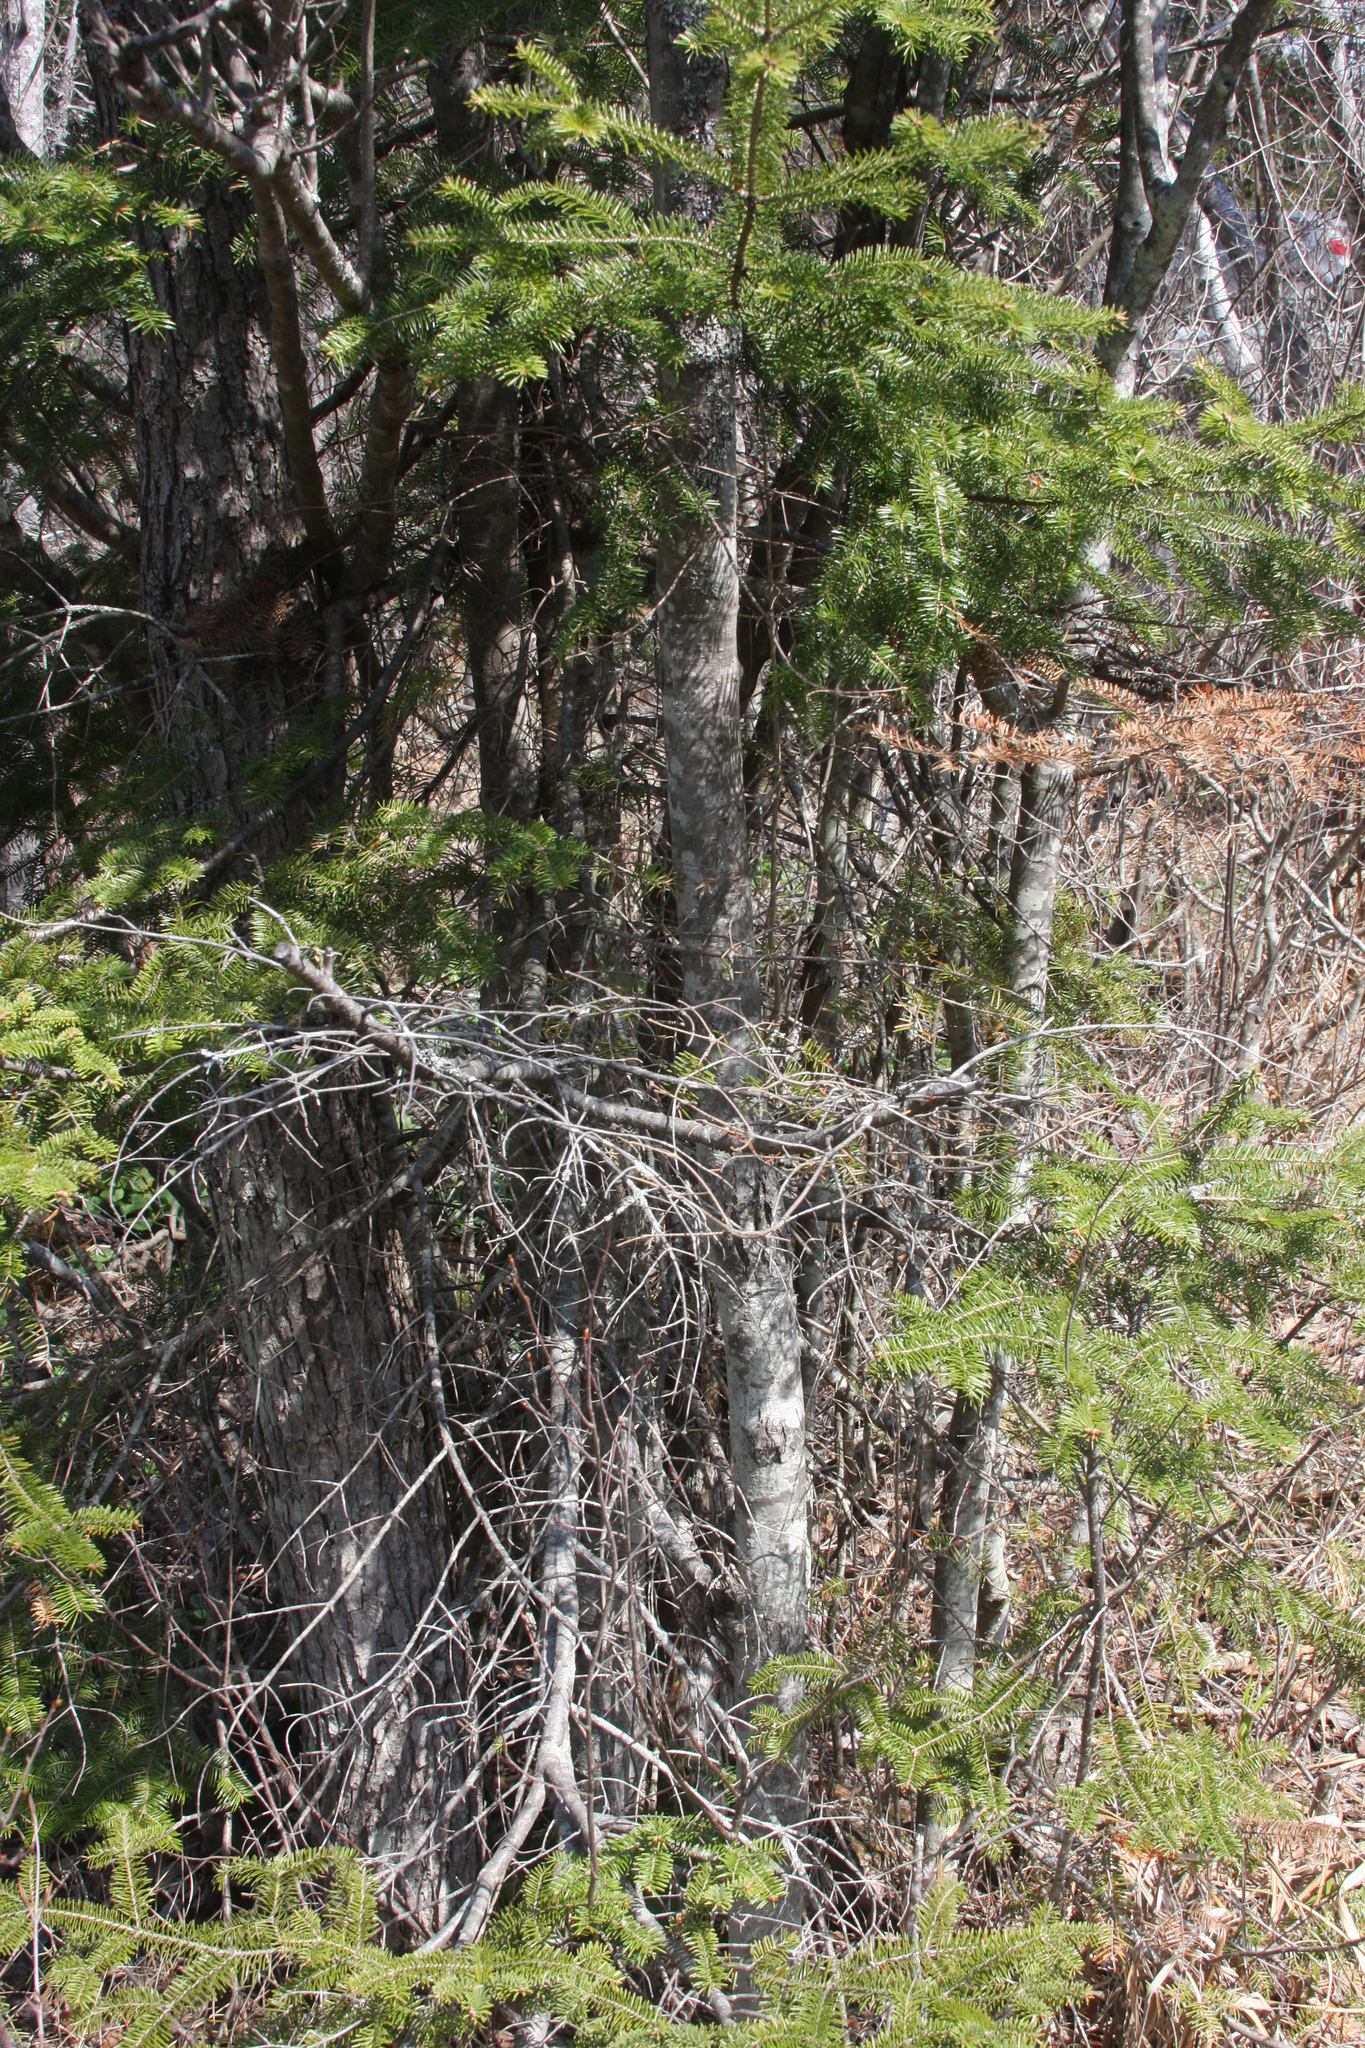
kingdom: Plantae
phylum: Tracheophyta
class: Pinopsida
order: Pinales
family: Pinaceae
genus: Abies
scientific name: Abies balsamea
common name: Balsam fir
